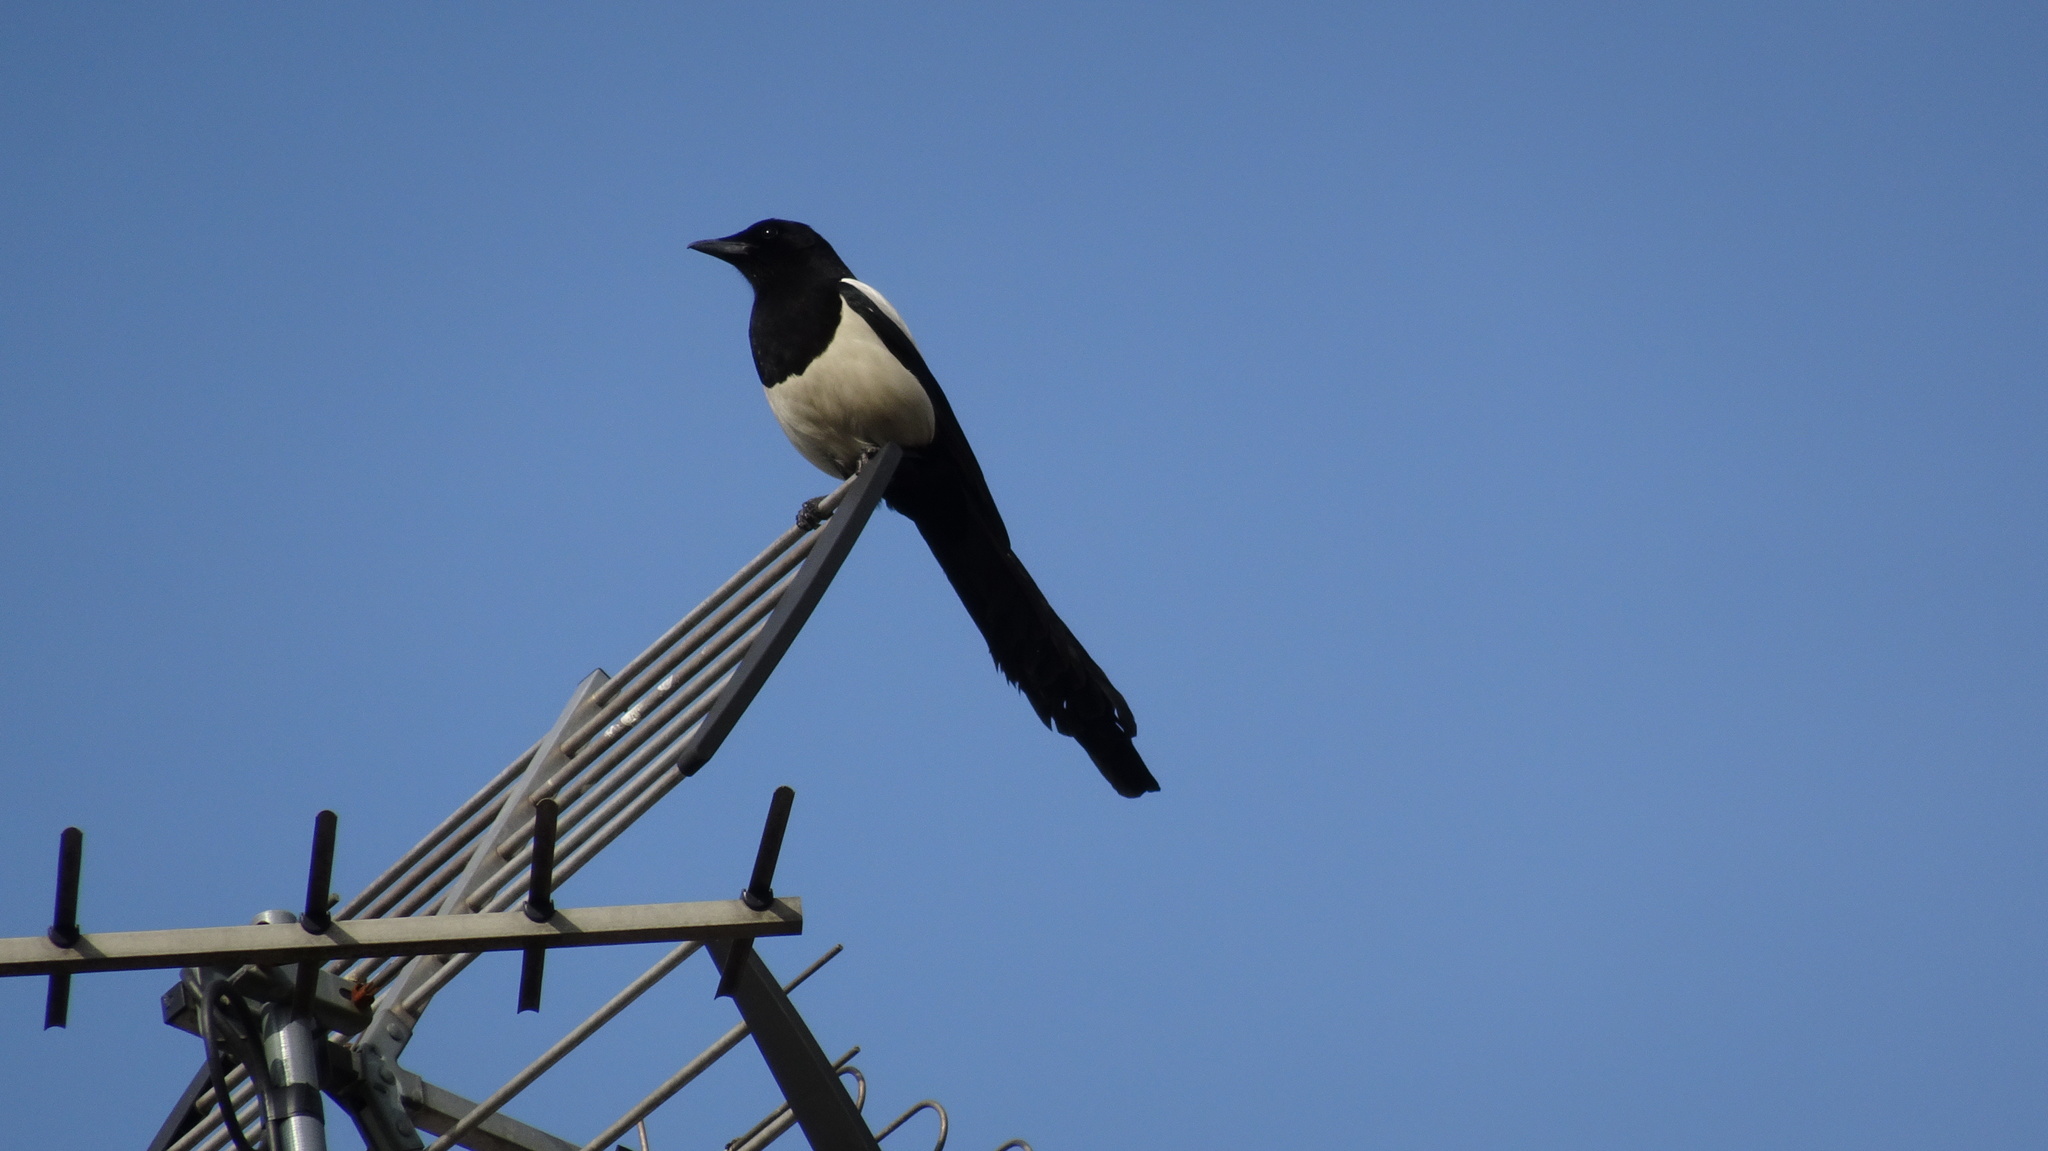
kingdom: Animalia
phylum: Chordata
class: Aves
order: Passeriformes
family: Corvidae
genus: Pica
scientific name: Pica pica
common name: Eurasian magpie
